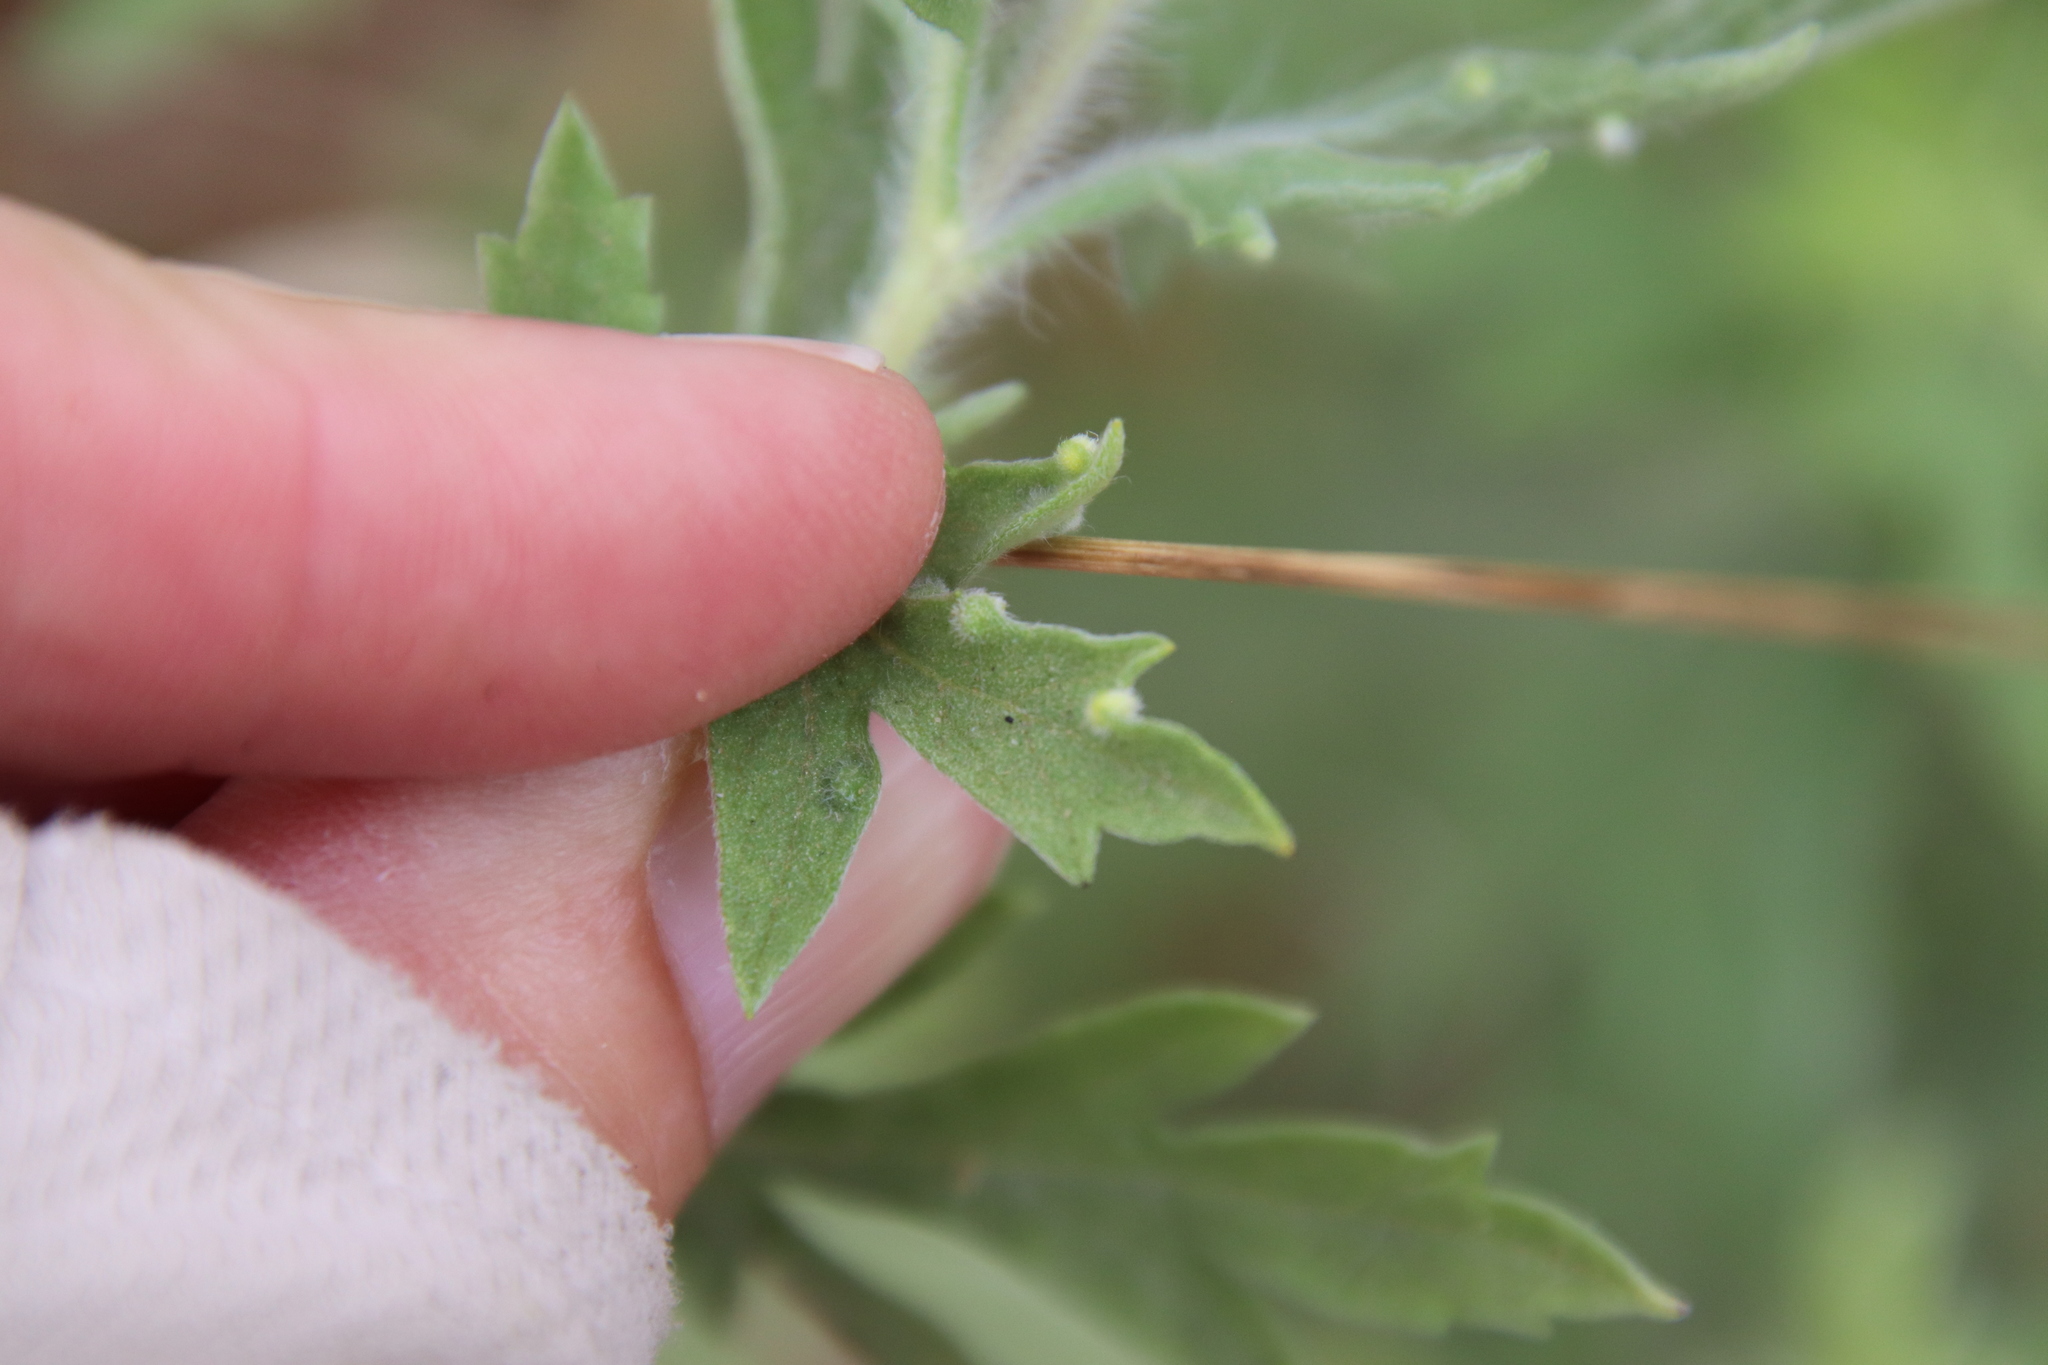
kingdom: Animalia
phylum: Arthropoda
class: Arachnida
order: Trombidiformes
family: Eriophyidae
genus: Aceria
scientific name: Aceria
